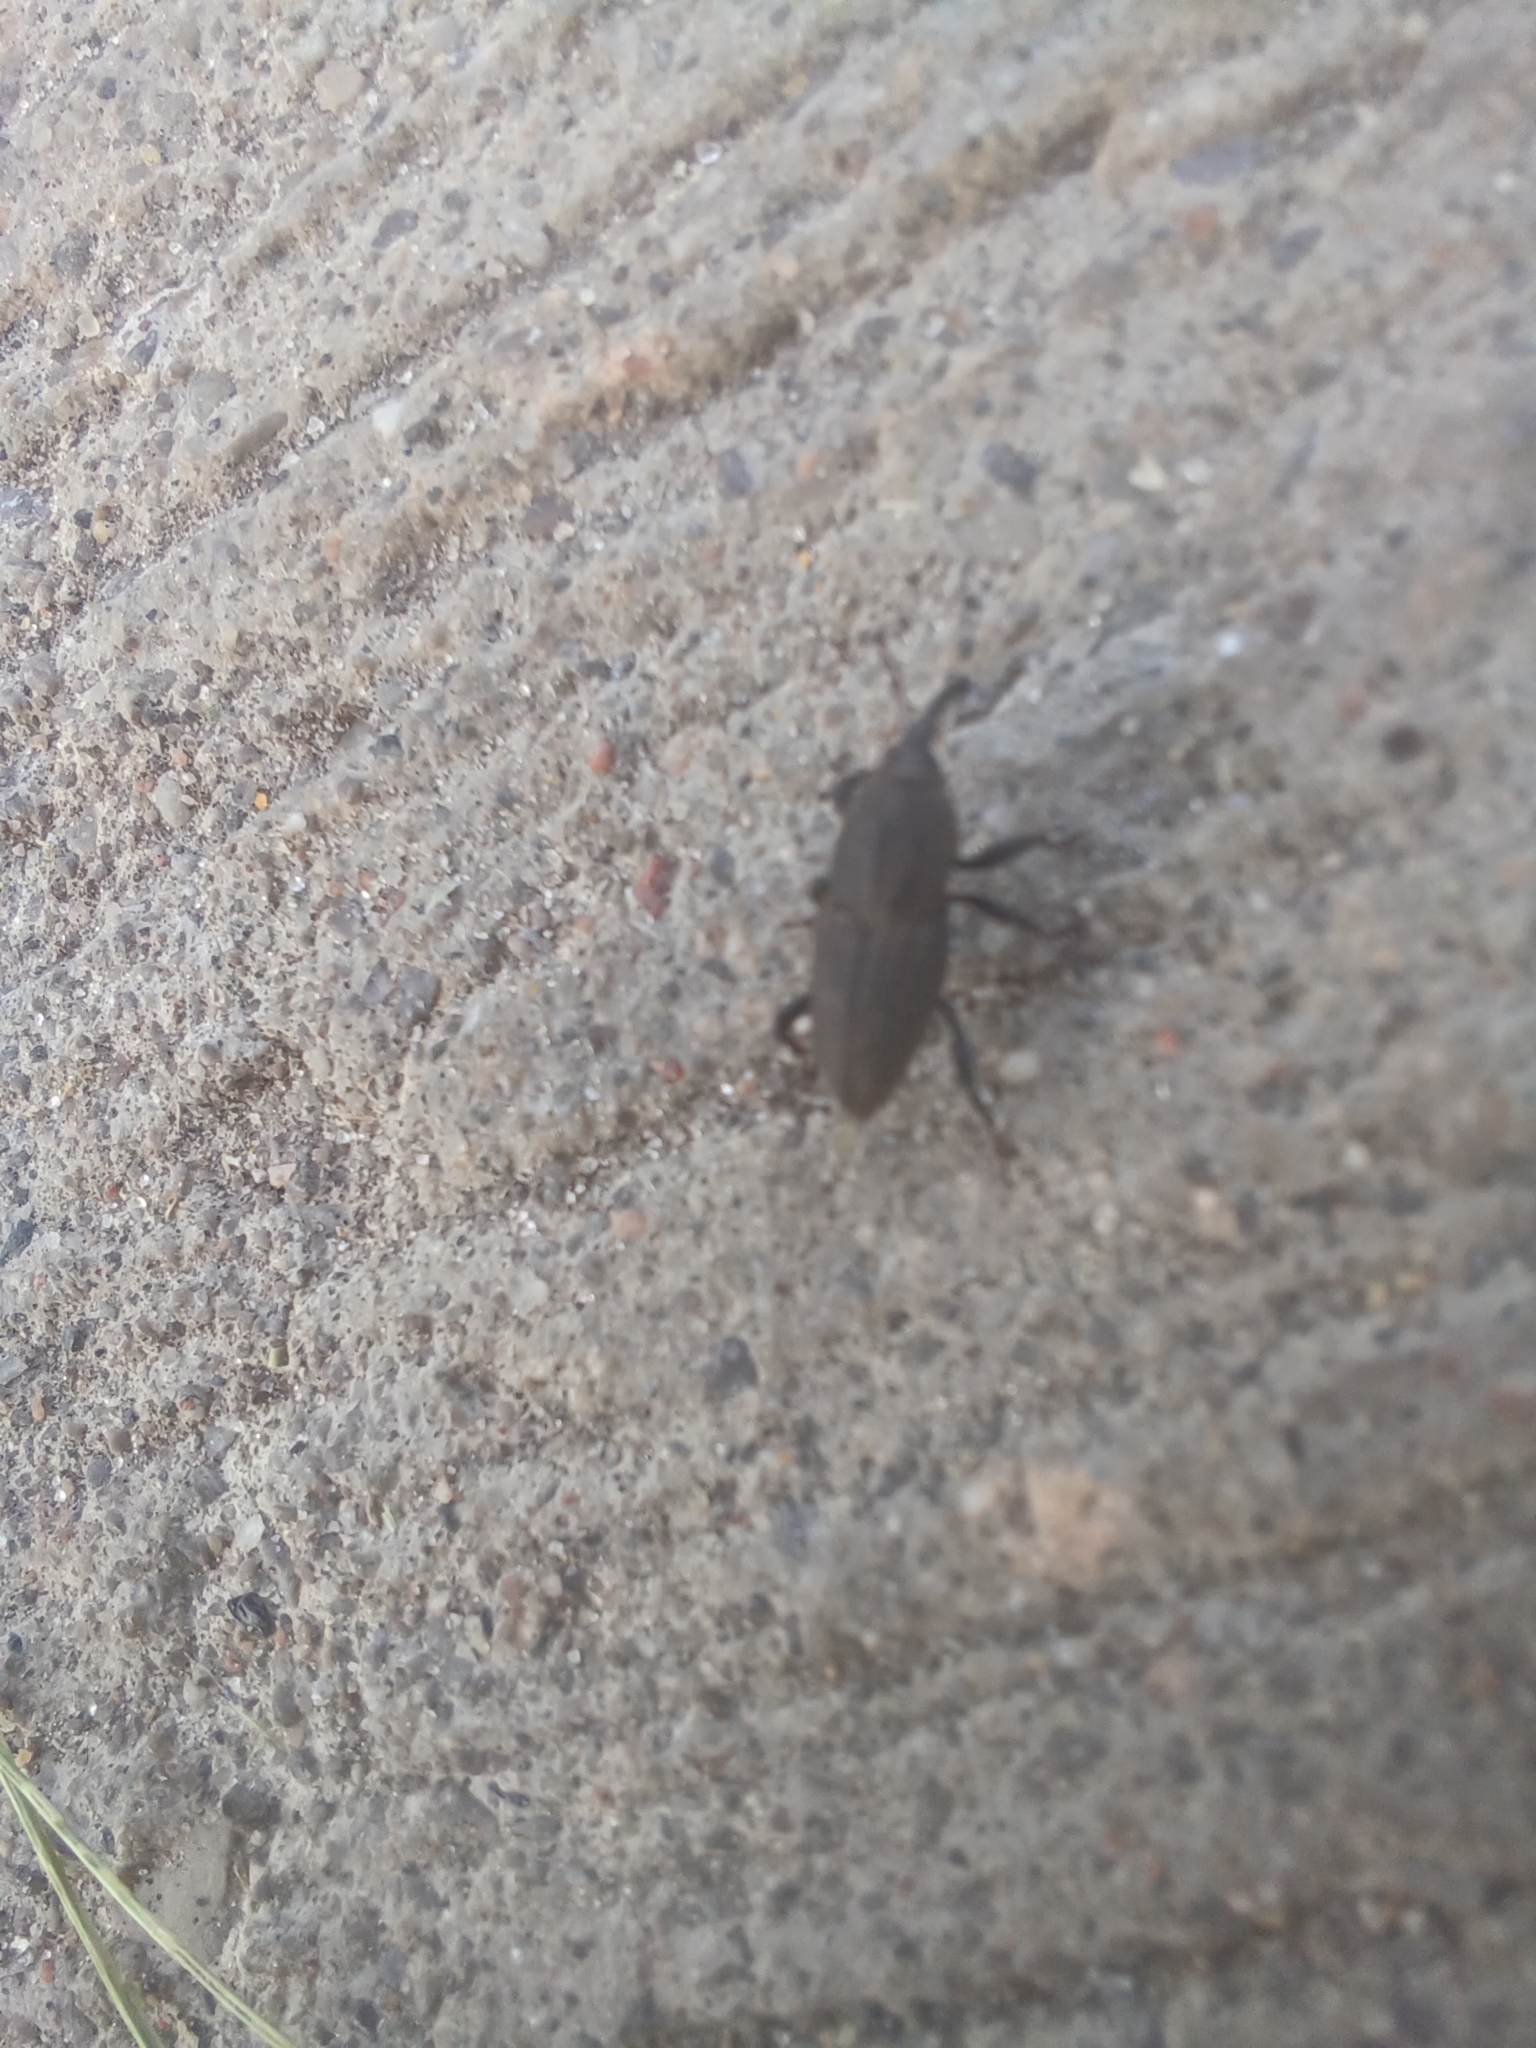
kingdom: Animalia
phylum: Arthropoda
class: Insecta
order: Coleoptera
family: Dryophthoridae
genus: Sphenophorus
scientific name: Sphenophorus interstitialis
